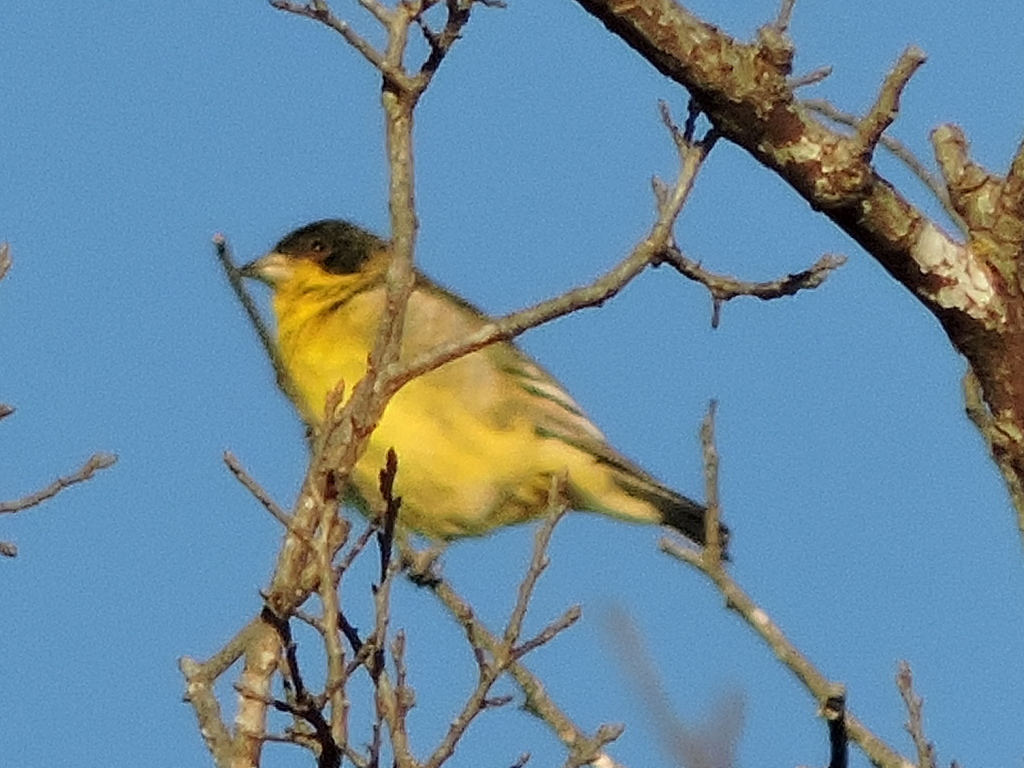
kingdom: Animalia
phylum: Chordata
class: Aves
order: Passeriformes
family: Fringillidae
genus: Spinus
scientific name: Spinus psaltria
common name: Lesser goldfinch
